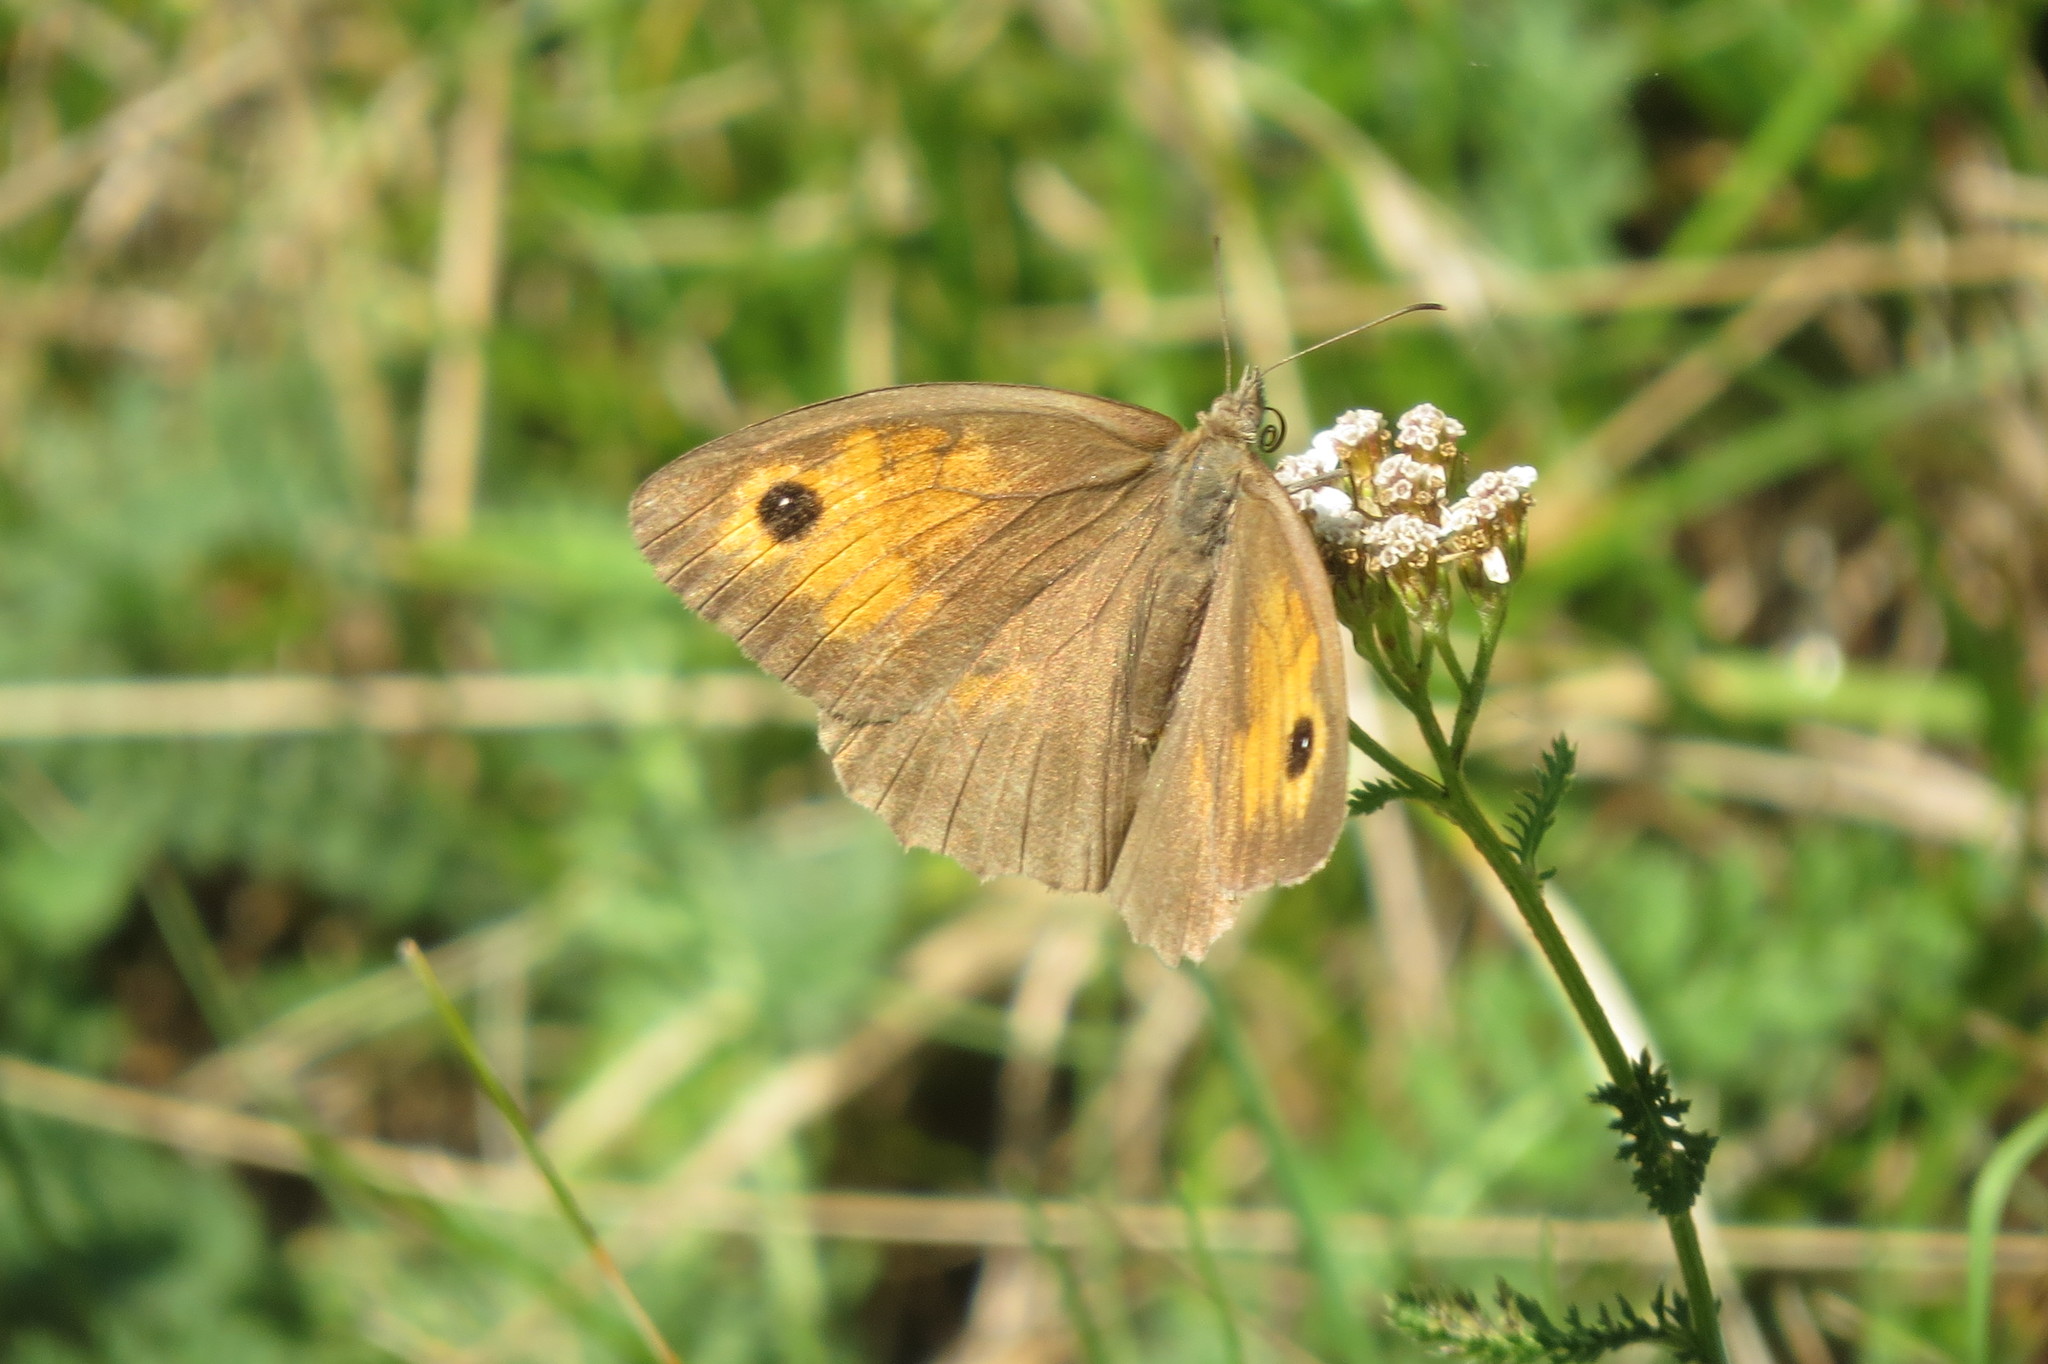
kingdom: Animalia
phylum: Arthropoda
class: Insecta
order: Lepidoptera
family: Nymphalidae
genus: Maniola
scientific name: Maniola jurtina
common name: Meadow brown
